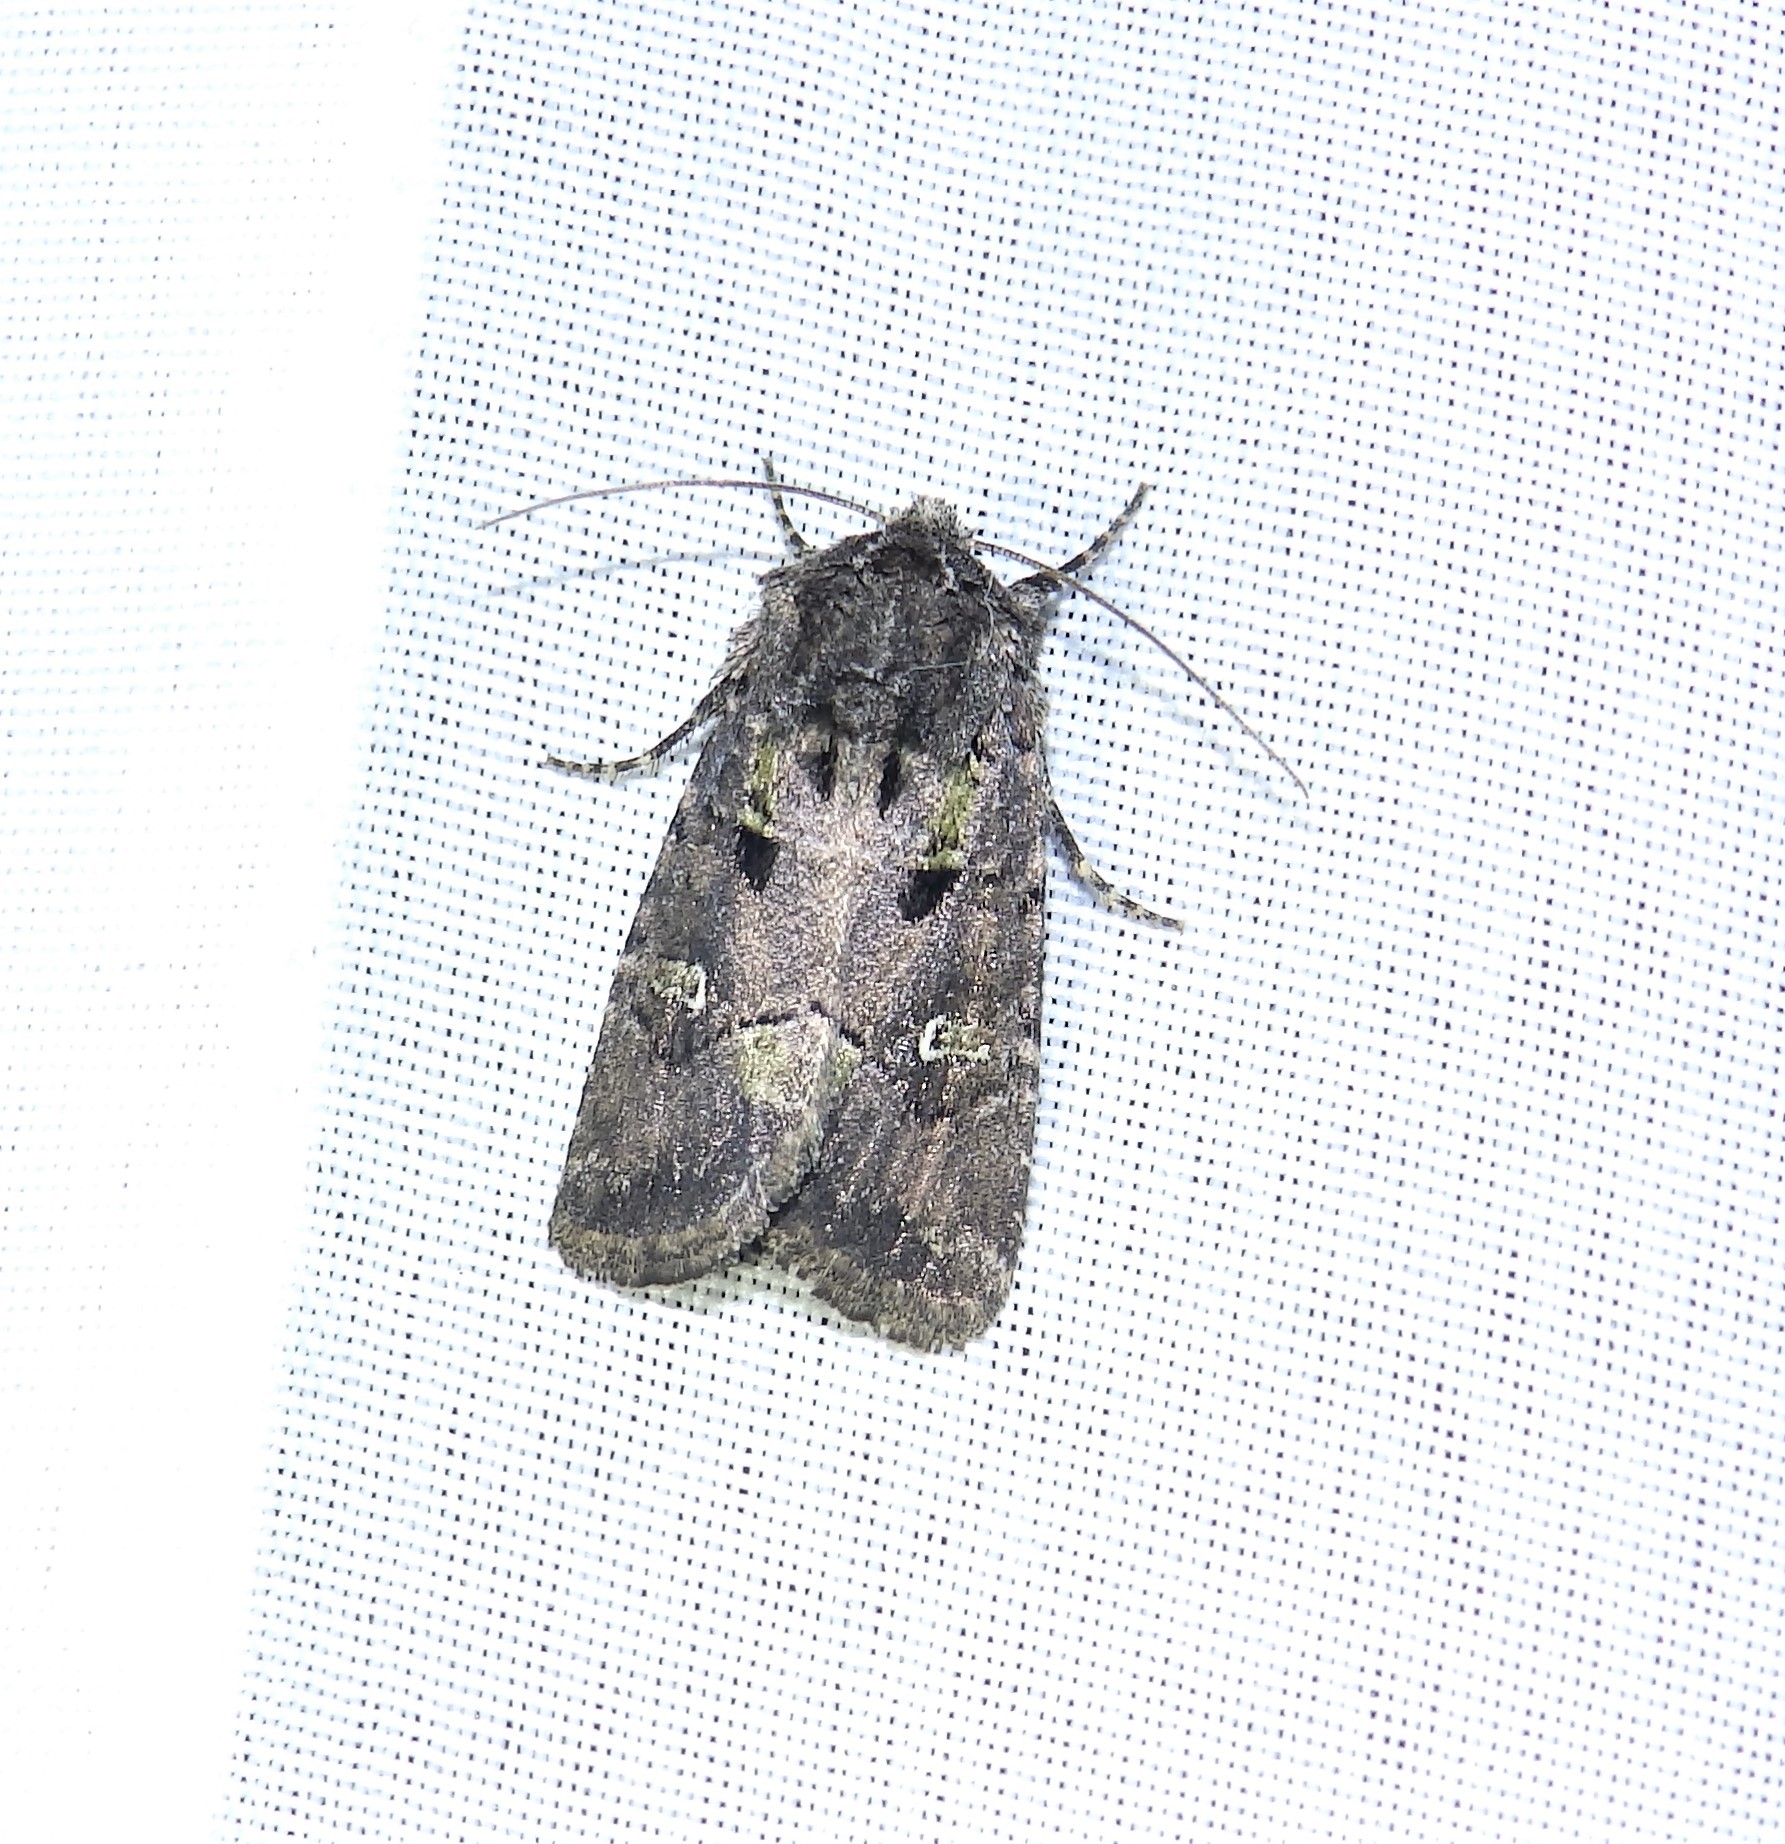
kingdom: Animalia
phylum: Arthropoda
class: Insecta
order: Lepidoptera
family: Noctuidae
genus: Lacinipolia
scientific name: Lacinipolia renigera
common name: Kidney-spotted minor
